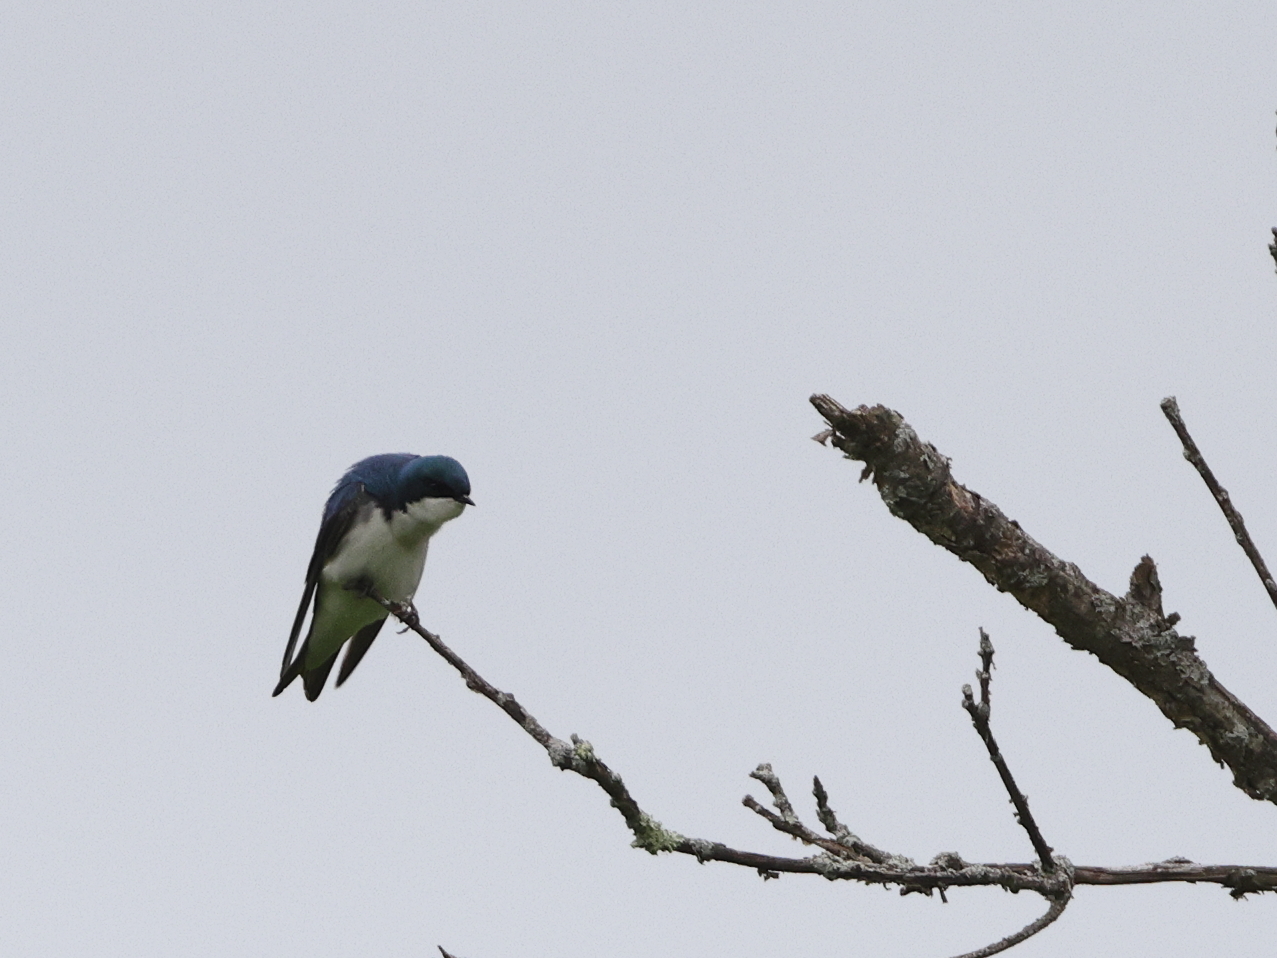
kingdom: Animalia
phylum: Chordata
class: Aves
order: Passeriformes
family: Hirundinidae
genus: Tachycineta
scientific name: Tachycineta bicolor
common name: Tree swallow
